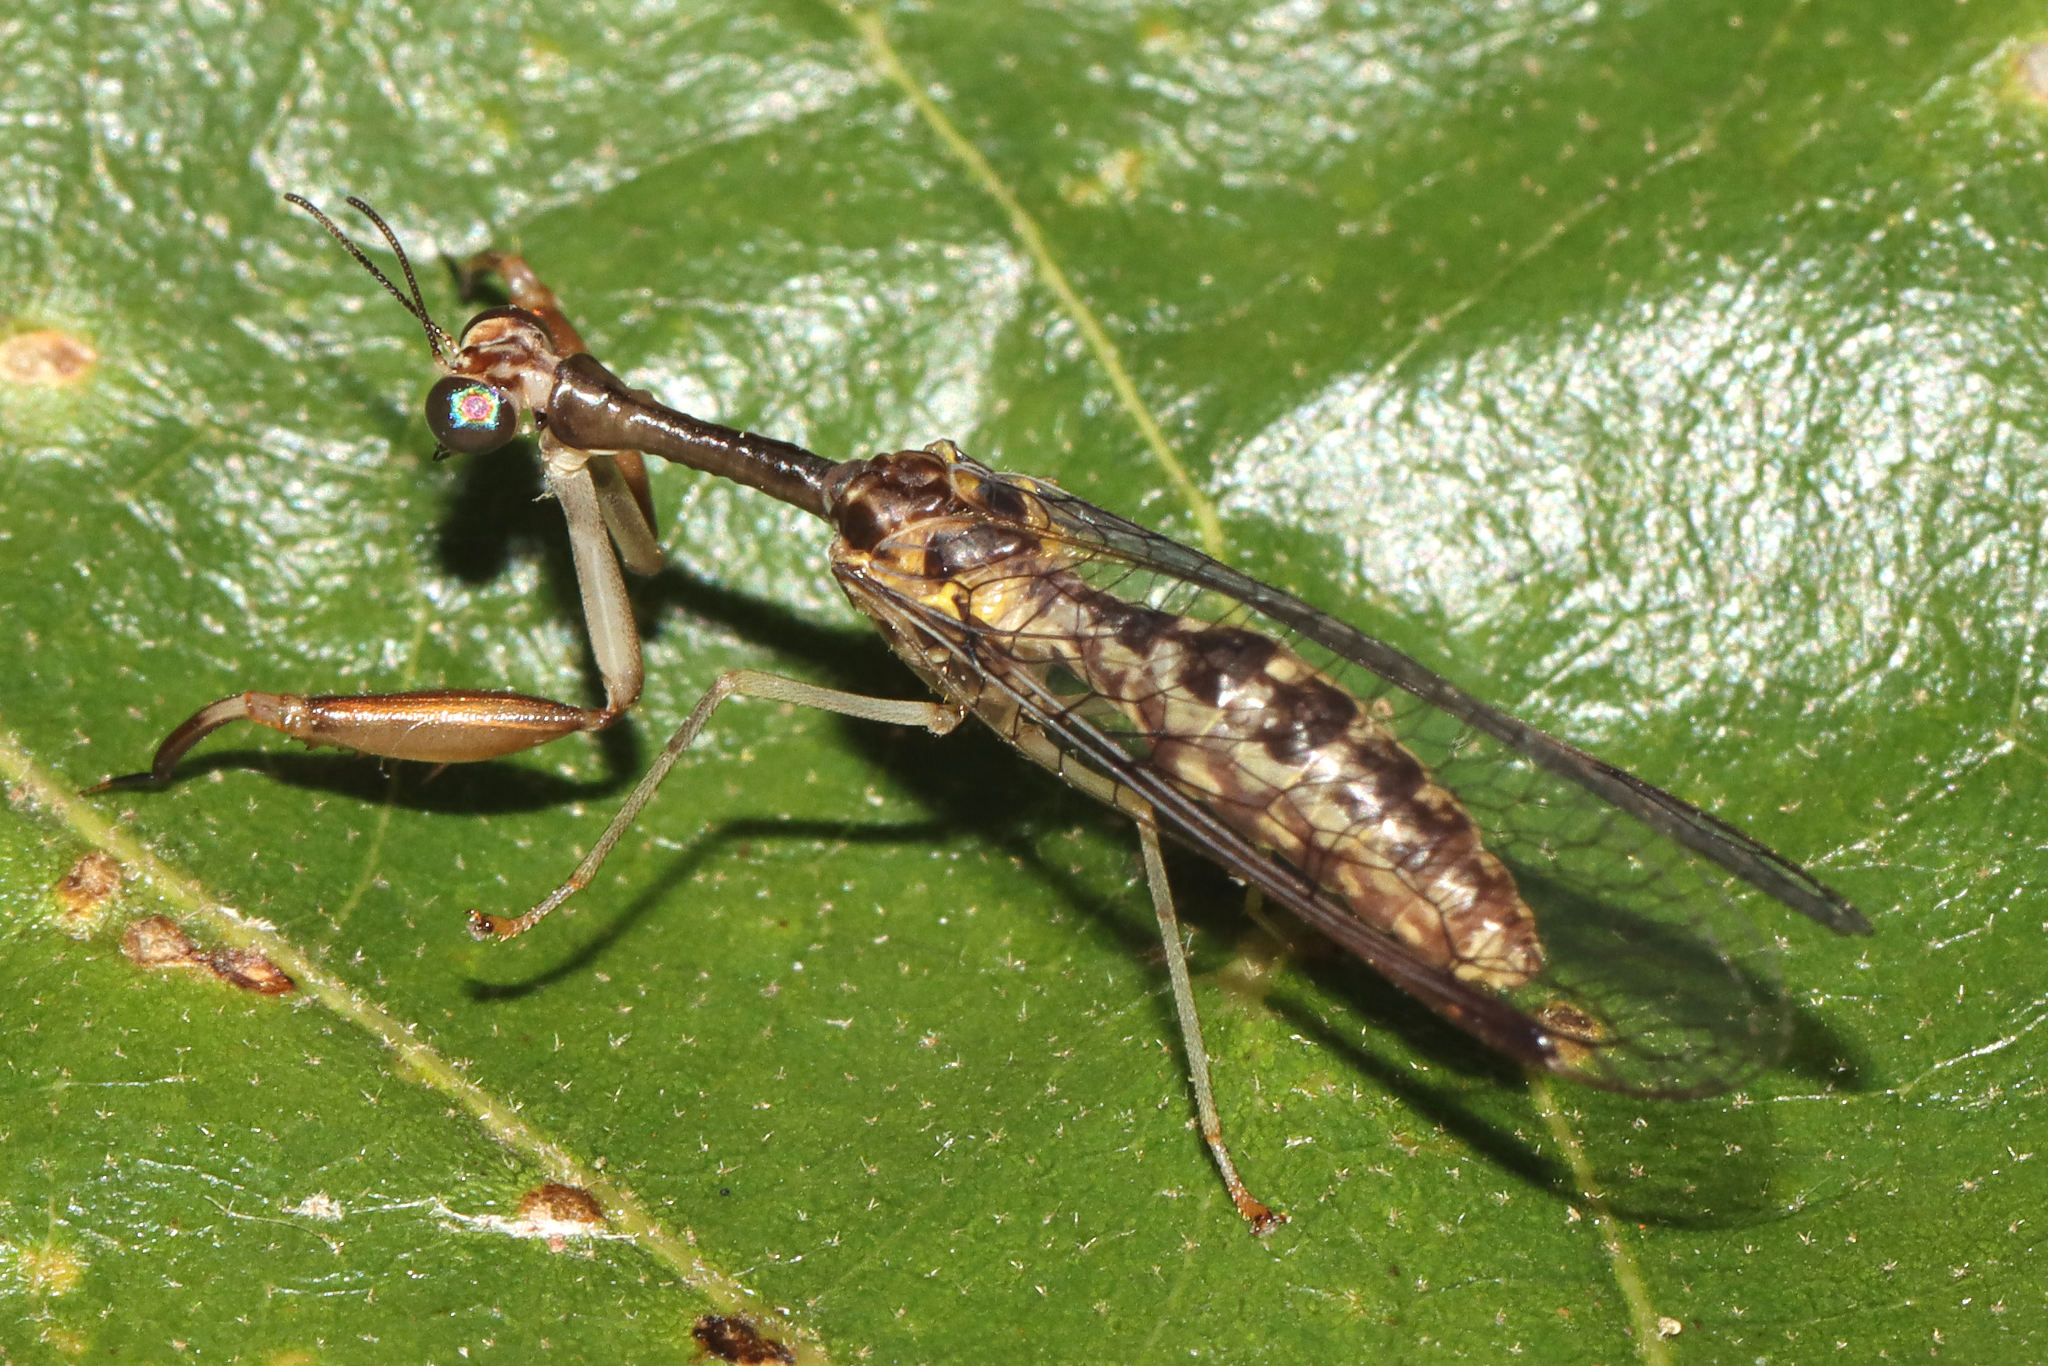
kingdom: Animalia
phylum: Arthropoda
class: Insecta
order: Neuroptera
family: Mantispidae
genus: Dicromantispa
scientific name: Dicromantispa sayi
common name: Say's mantidfly
